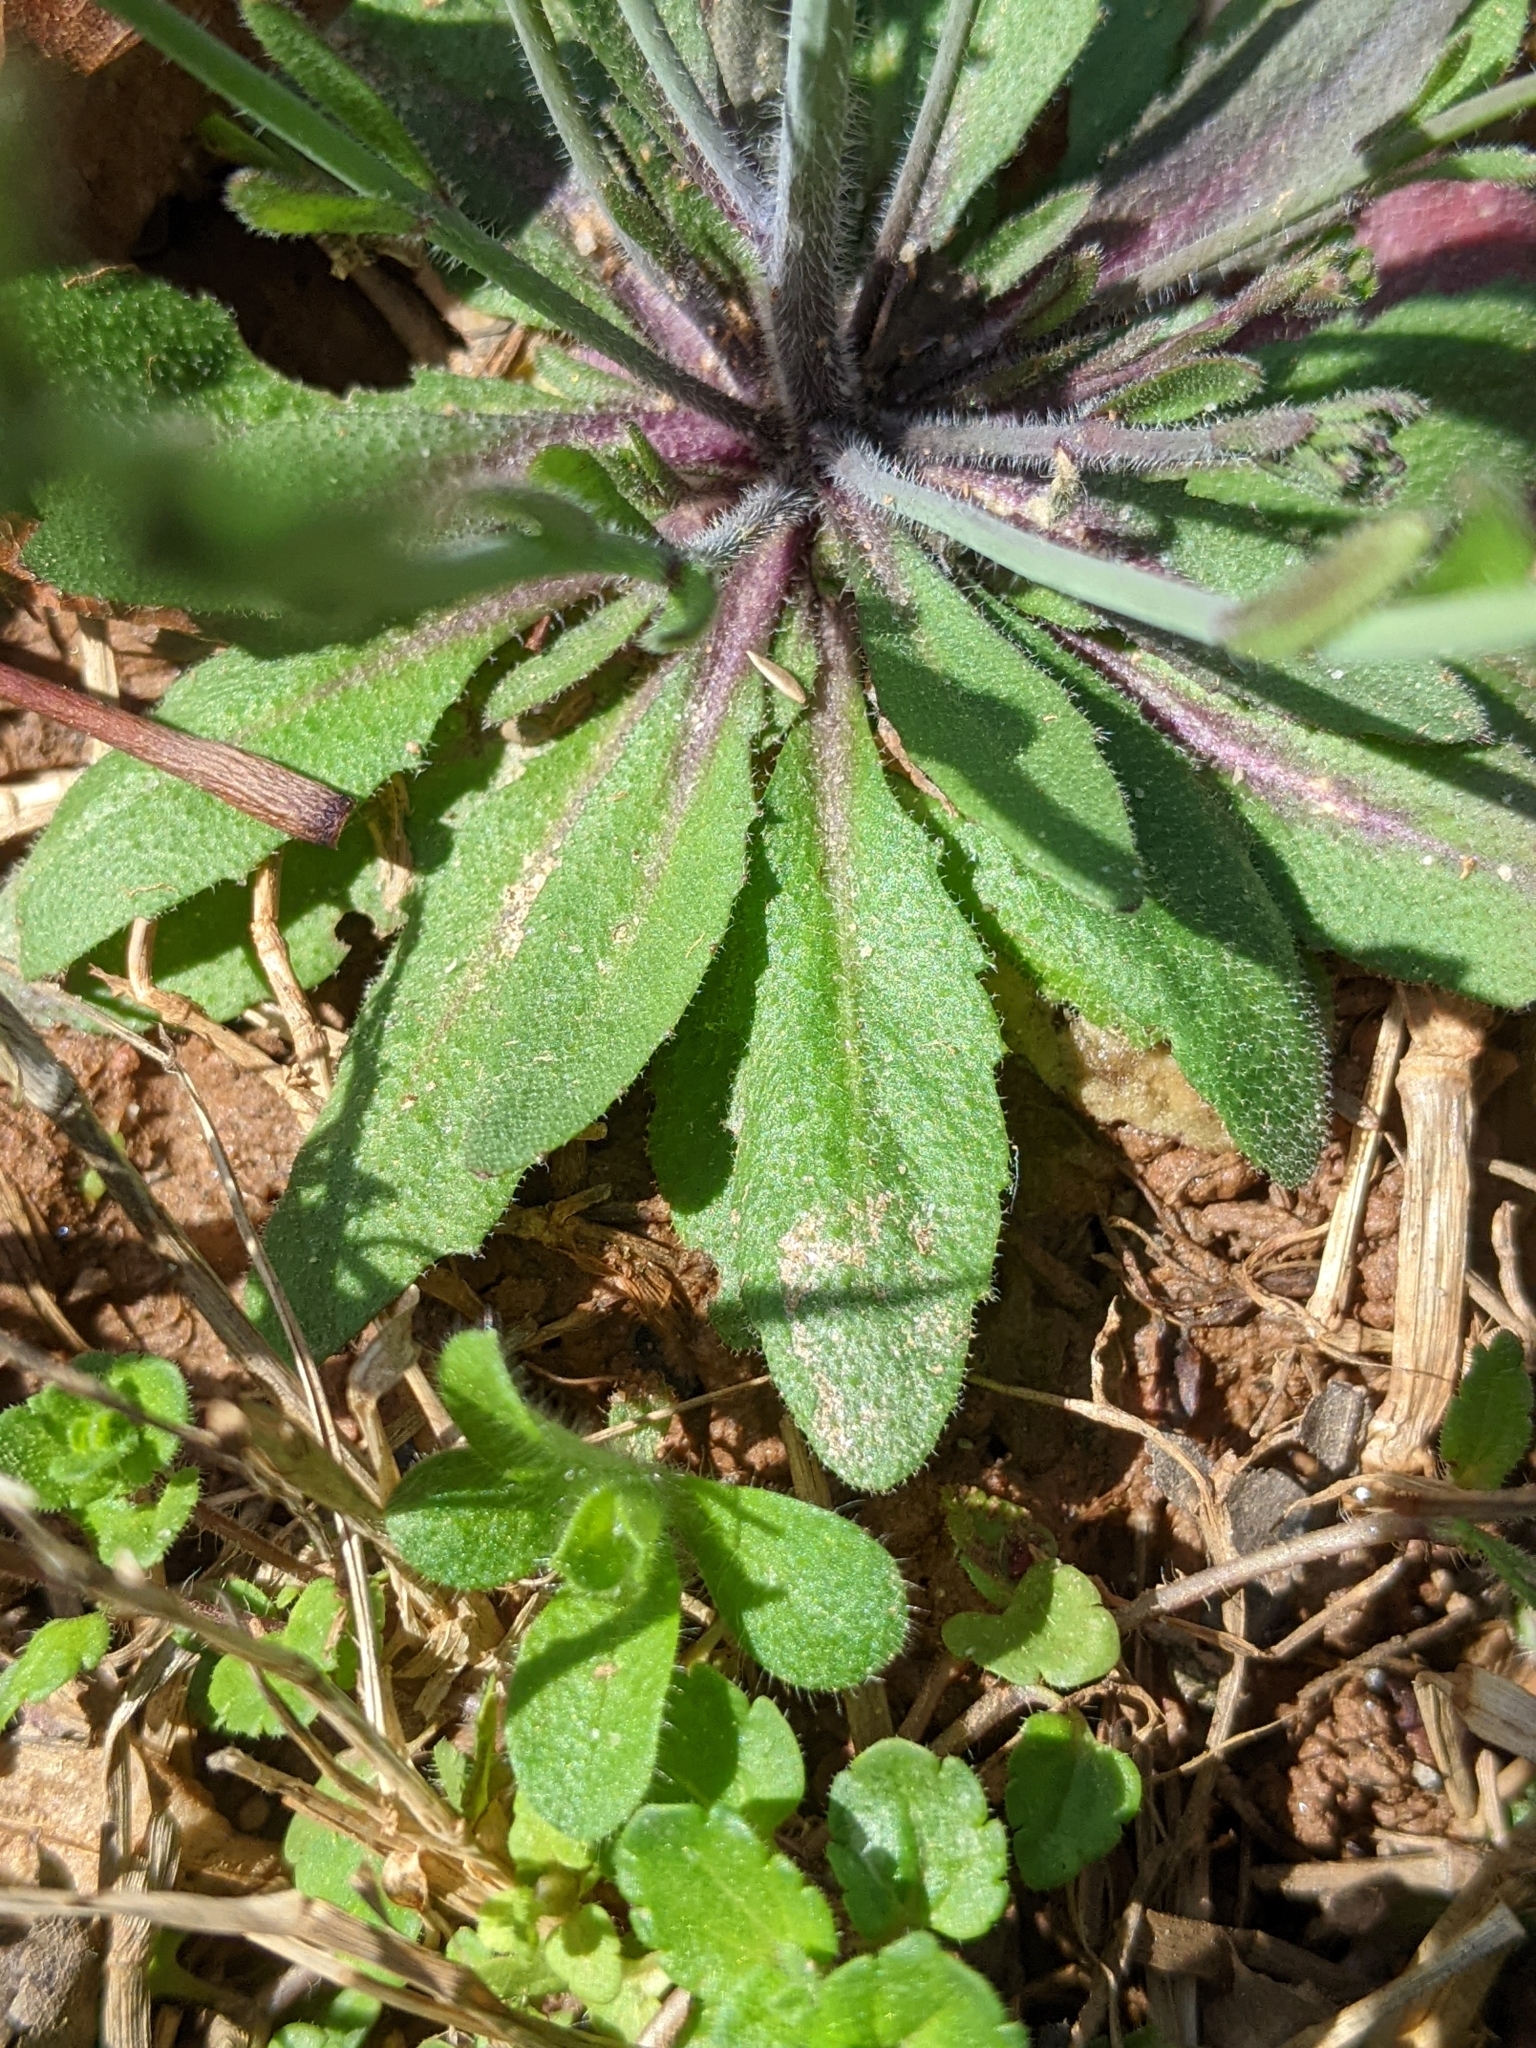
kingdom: Plantae
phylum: Tracheophyta
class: Magnoliopsida
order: Brassicales
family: Brassicaceae
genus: Arabidopsis
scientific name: Arabidopsis thaliana
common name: Thale cress
